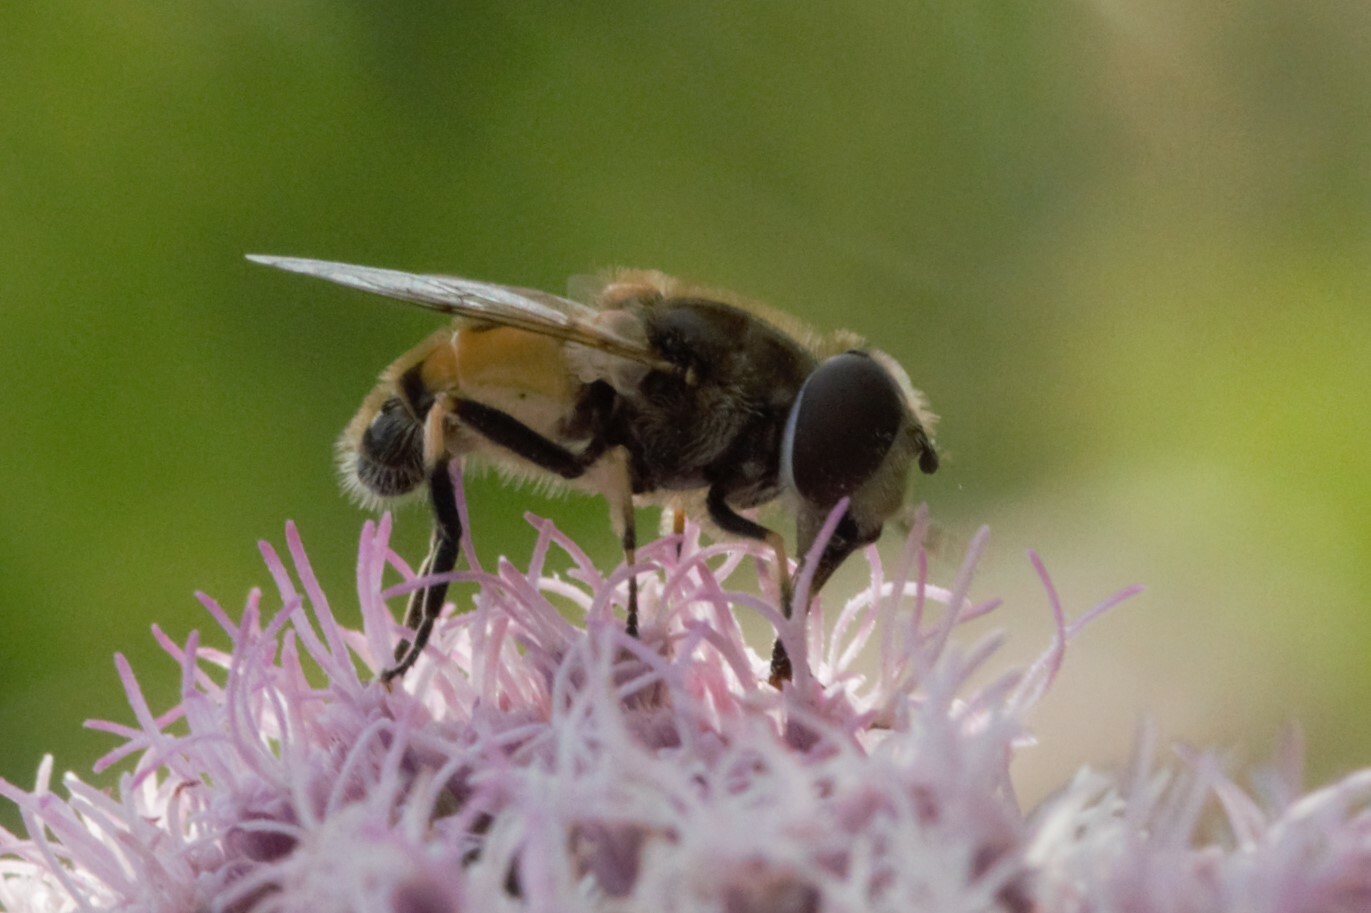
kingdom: Animalia
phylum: Arthropoda
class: Insecta
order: Diptera
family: Syrphidae
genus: Eristalis
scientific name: Eristalis arbustorum
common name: Hover fly
